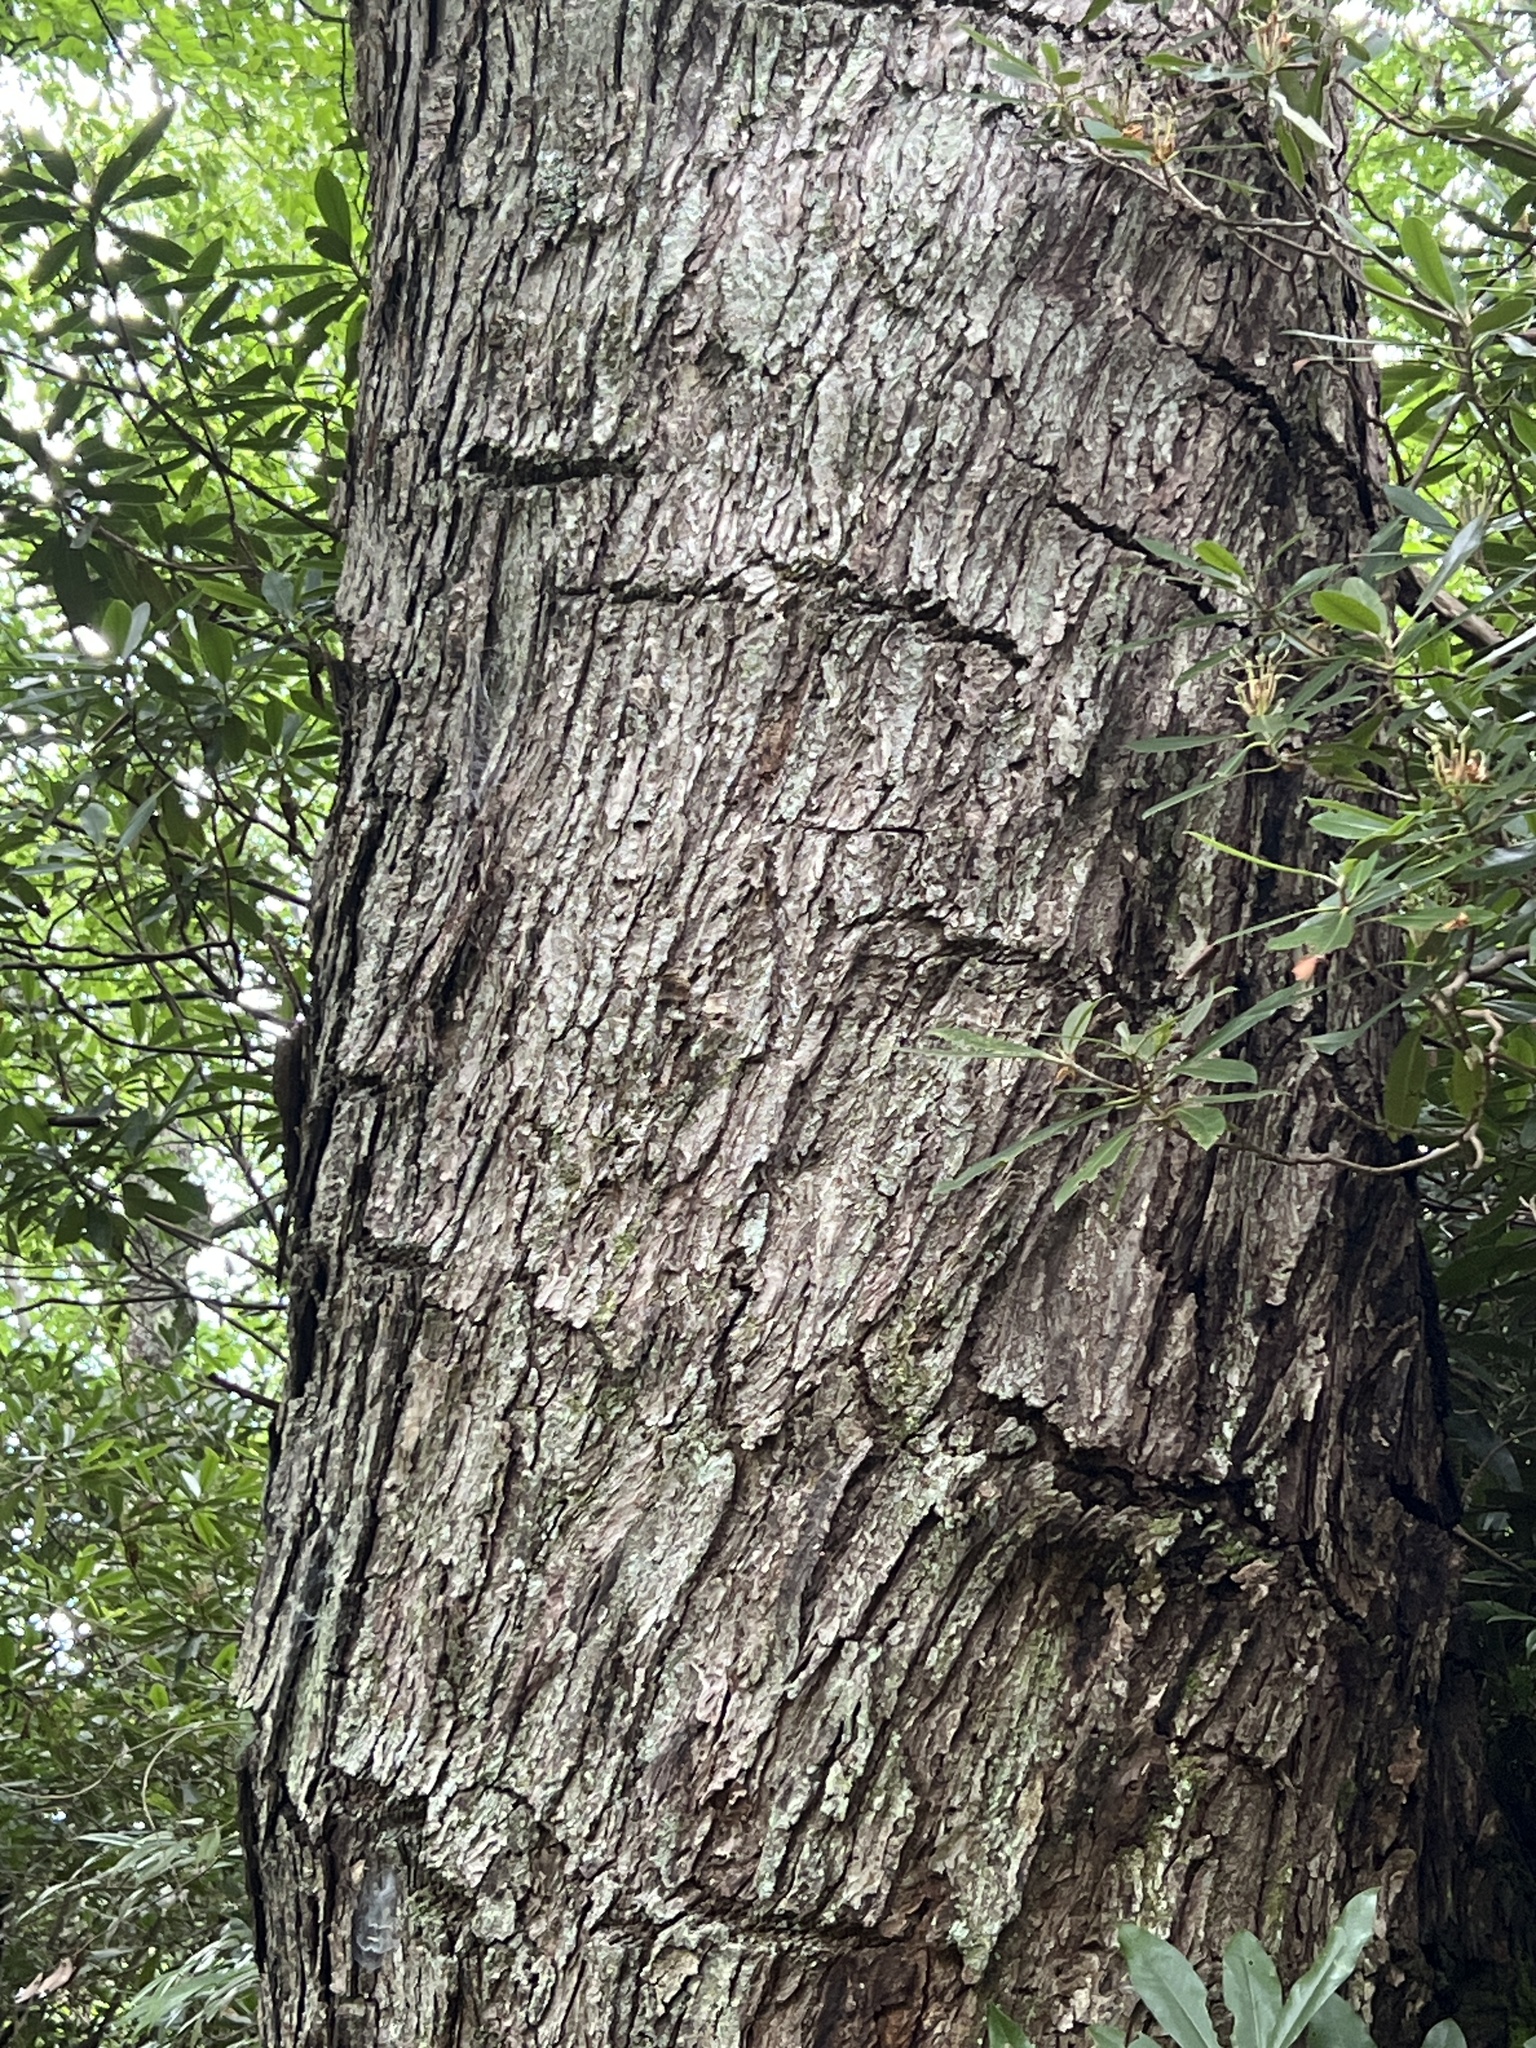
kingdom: Plantae
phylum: Tracheophyta
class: Magnoliopsida
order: Sapindales
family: Sapindaceae
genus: Acer
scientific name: Acer rubrum
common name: Red maple
